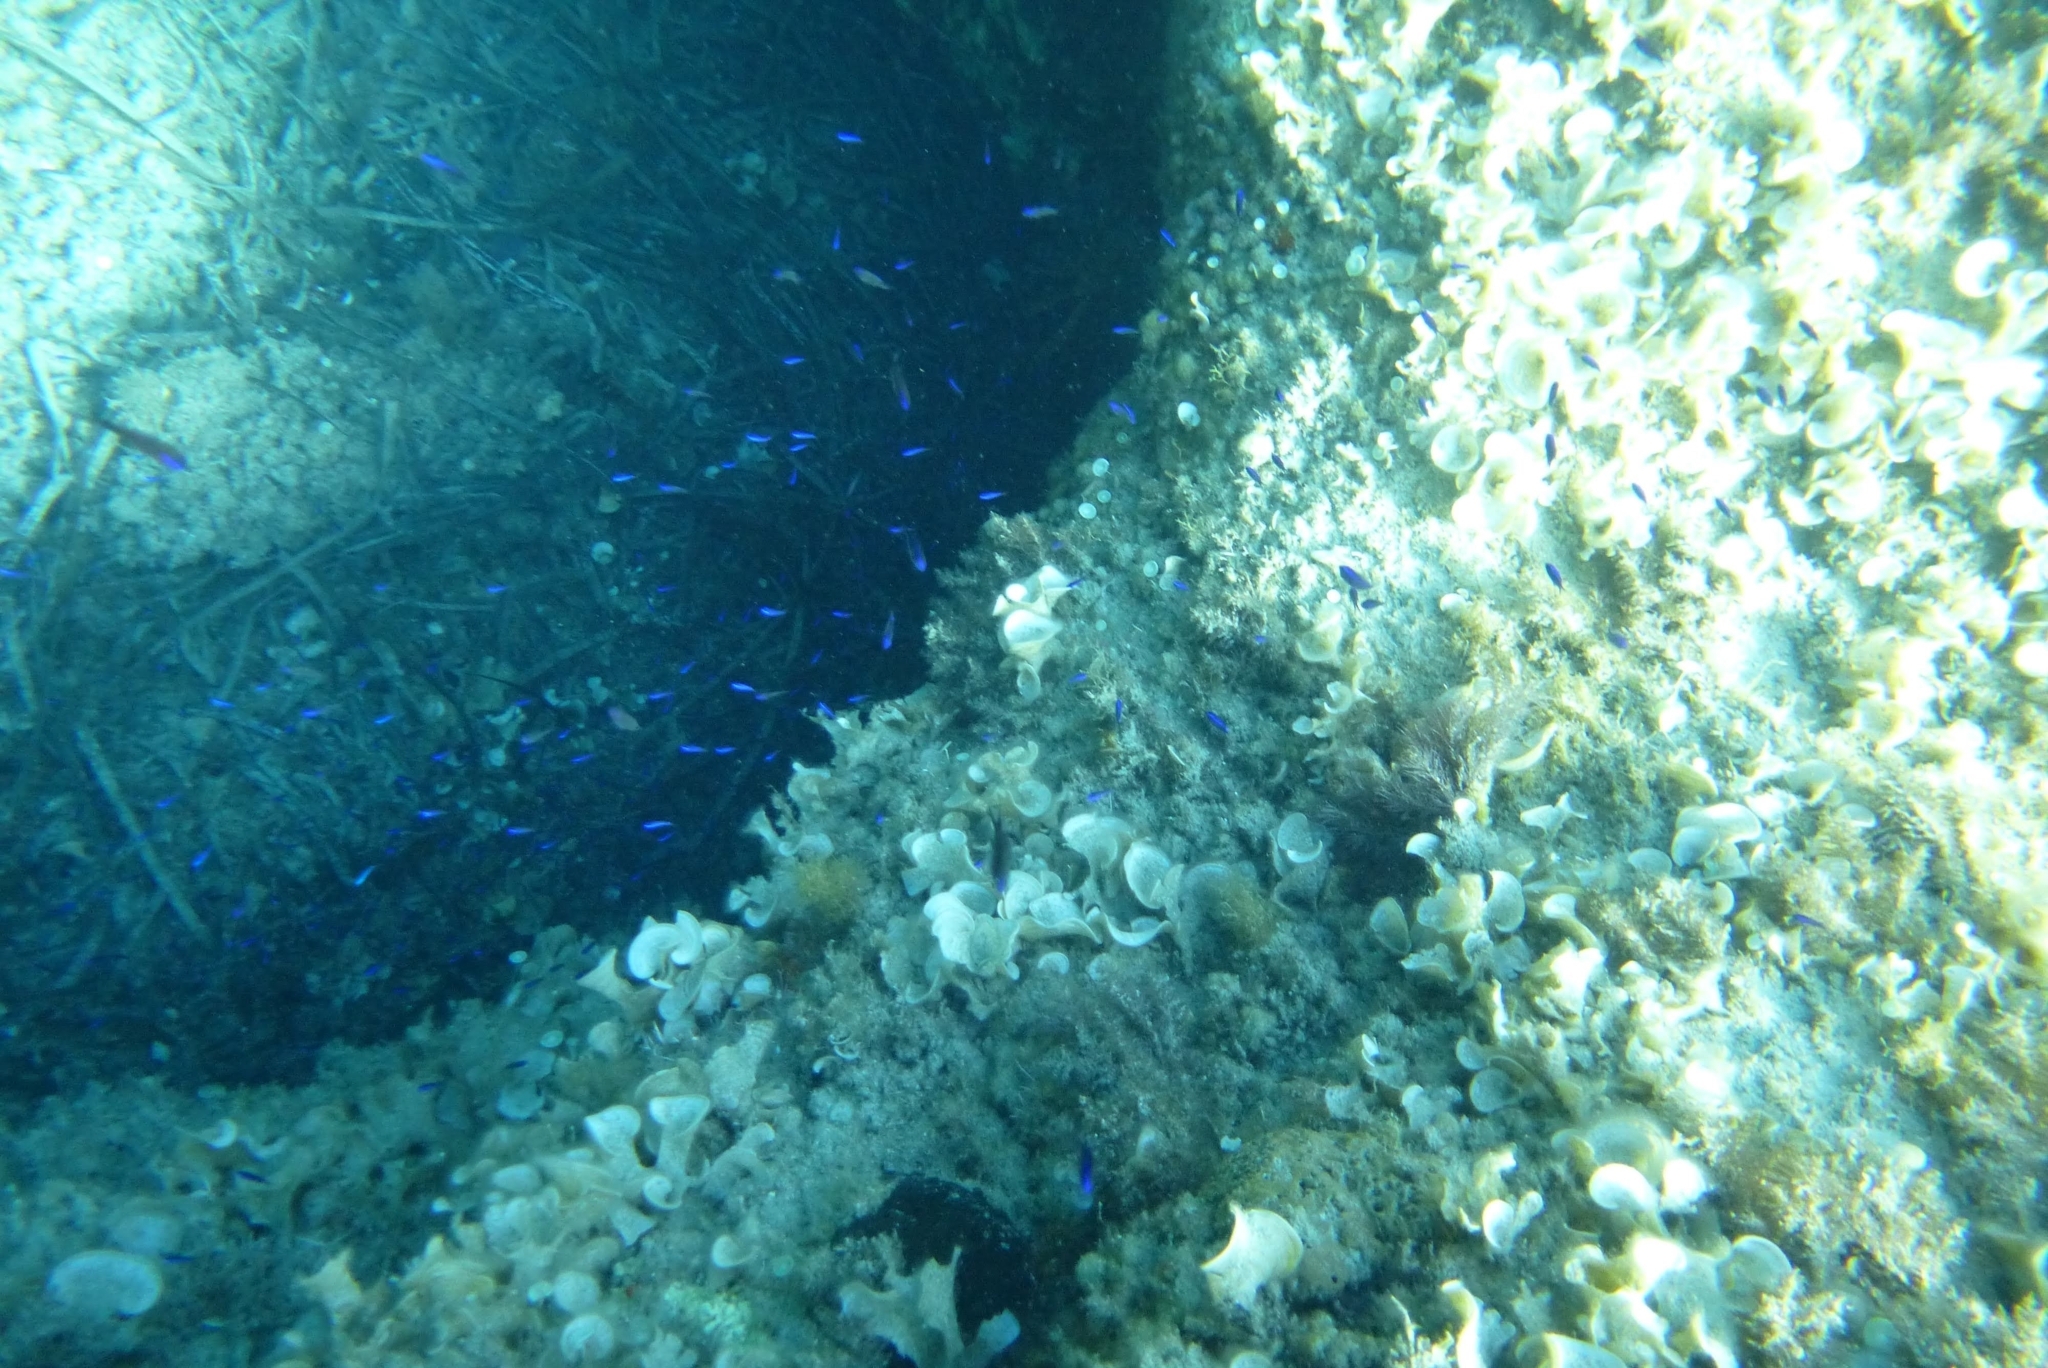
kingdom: Animalia
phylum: Chordata
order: Perciformes
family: Pomacentridae
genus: Chromis
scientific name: Chromis chromis
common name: Damselfish
